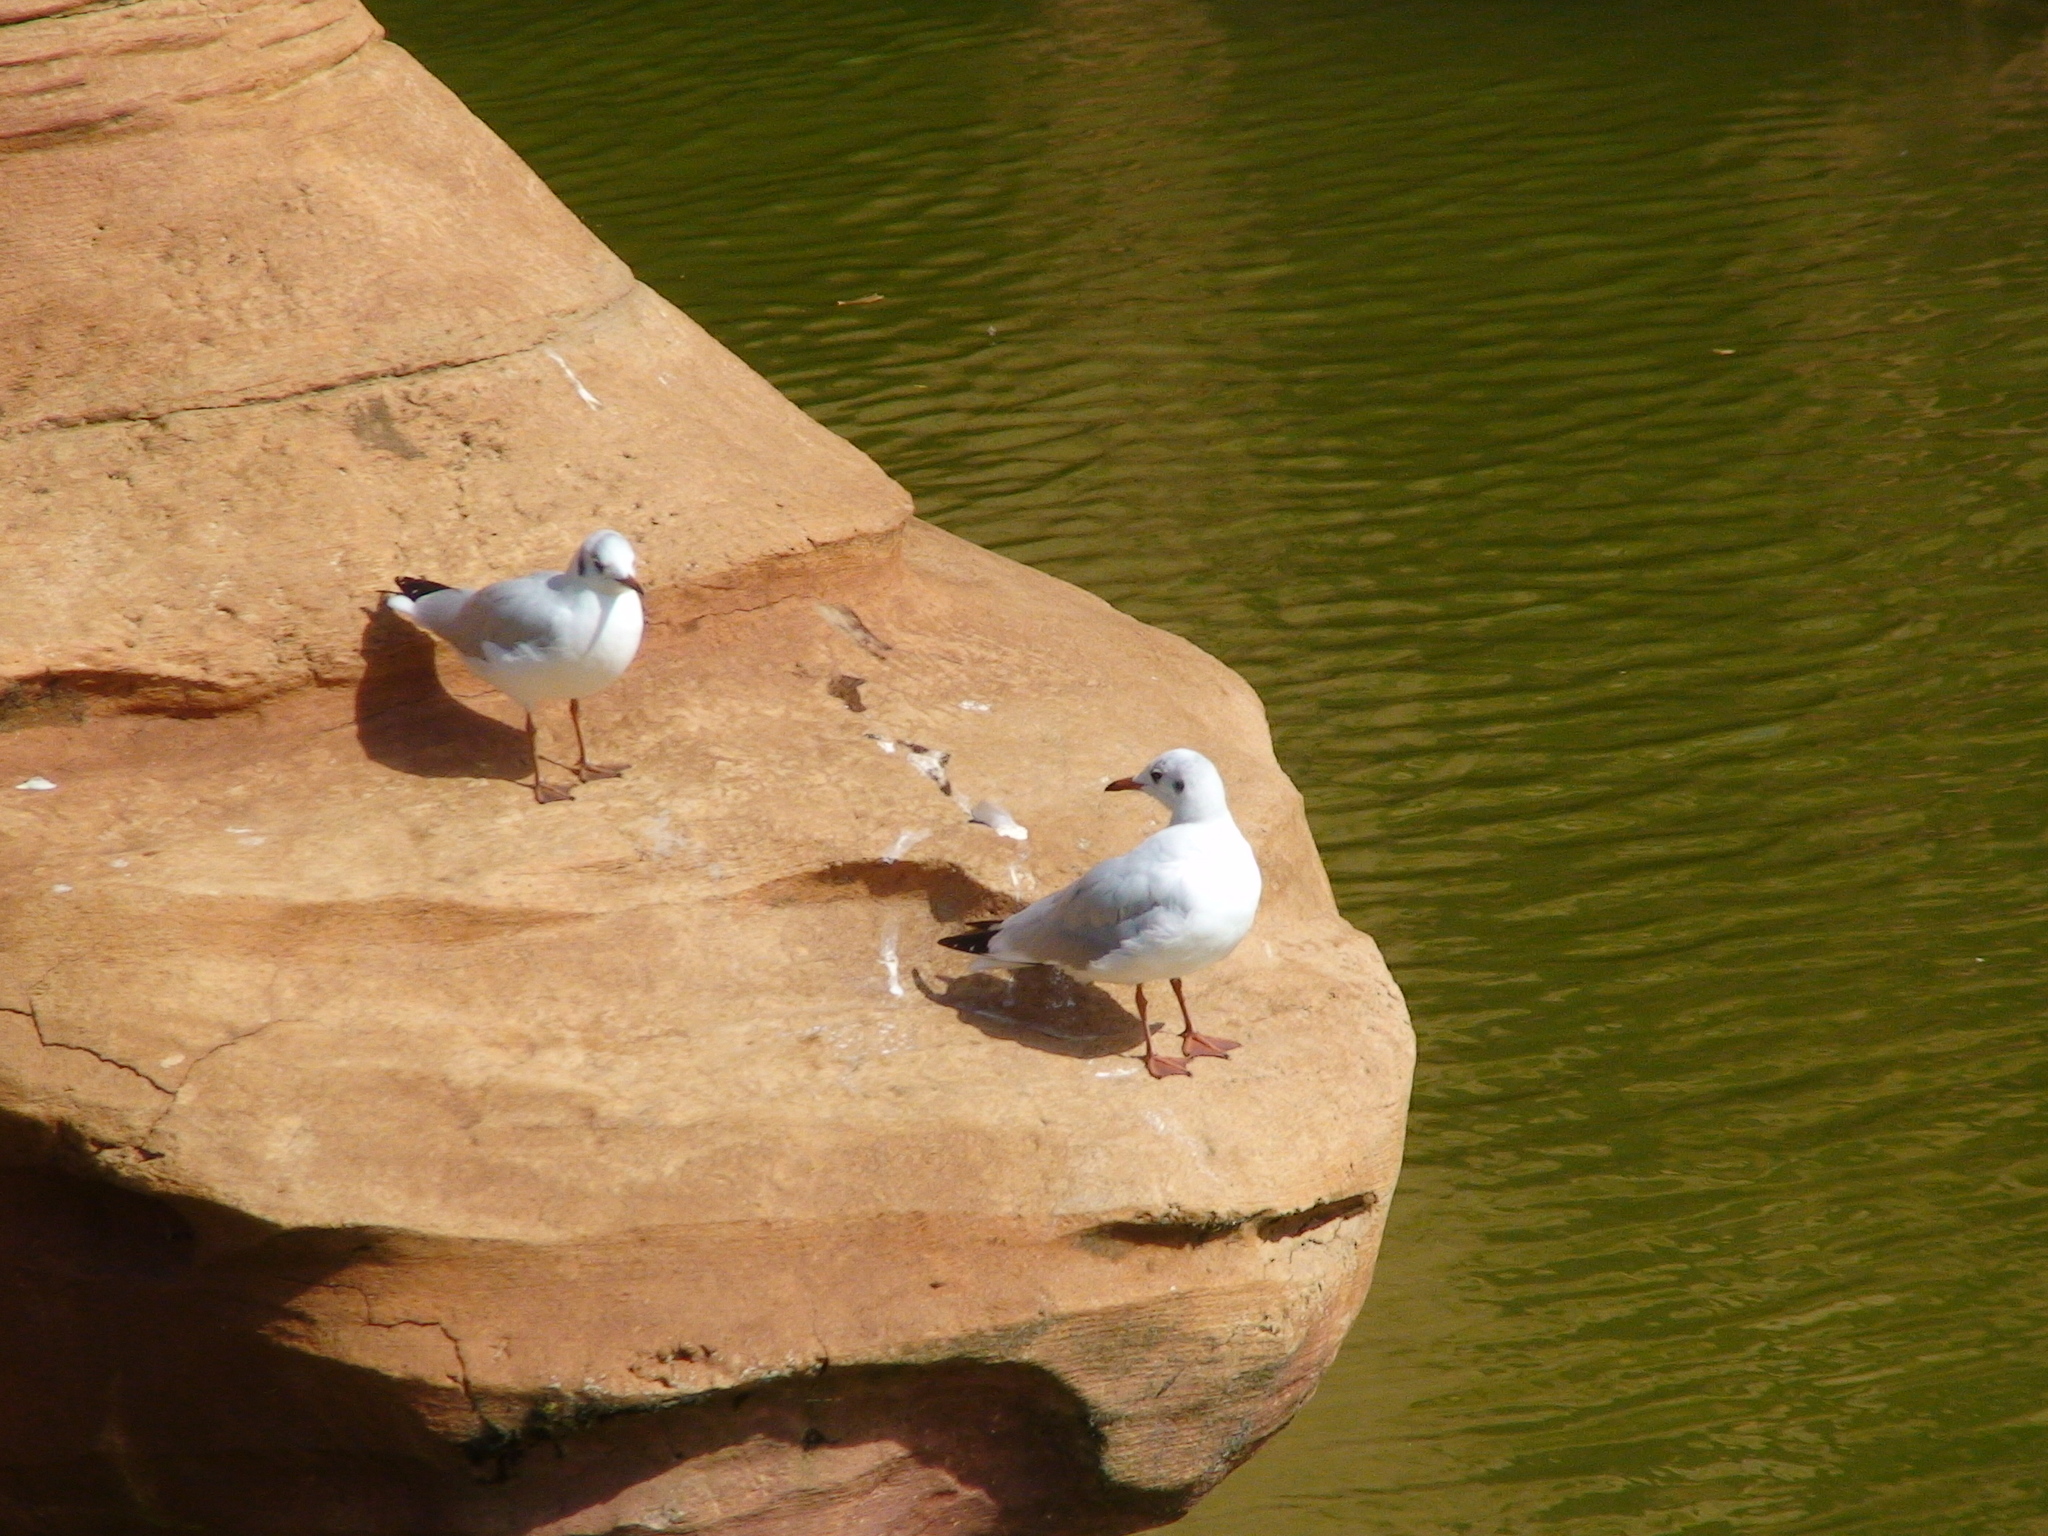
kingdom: Animalia
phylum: Chordata
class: Aves
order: Charadriiformes
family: Laridae
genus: Chroicocephalus
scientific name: Chroicocephalus ridibundus
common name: Black-headed gull
